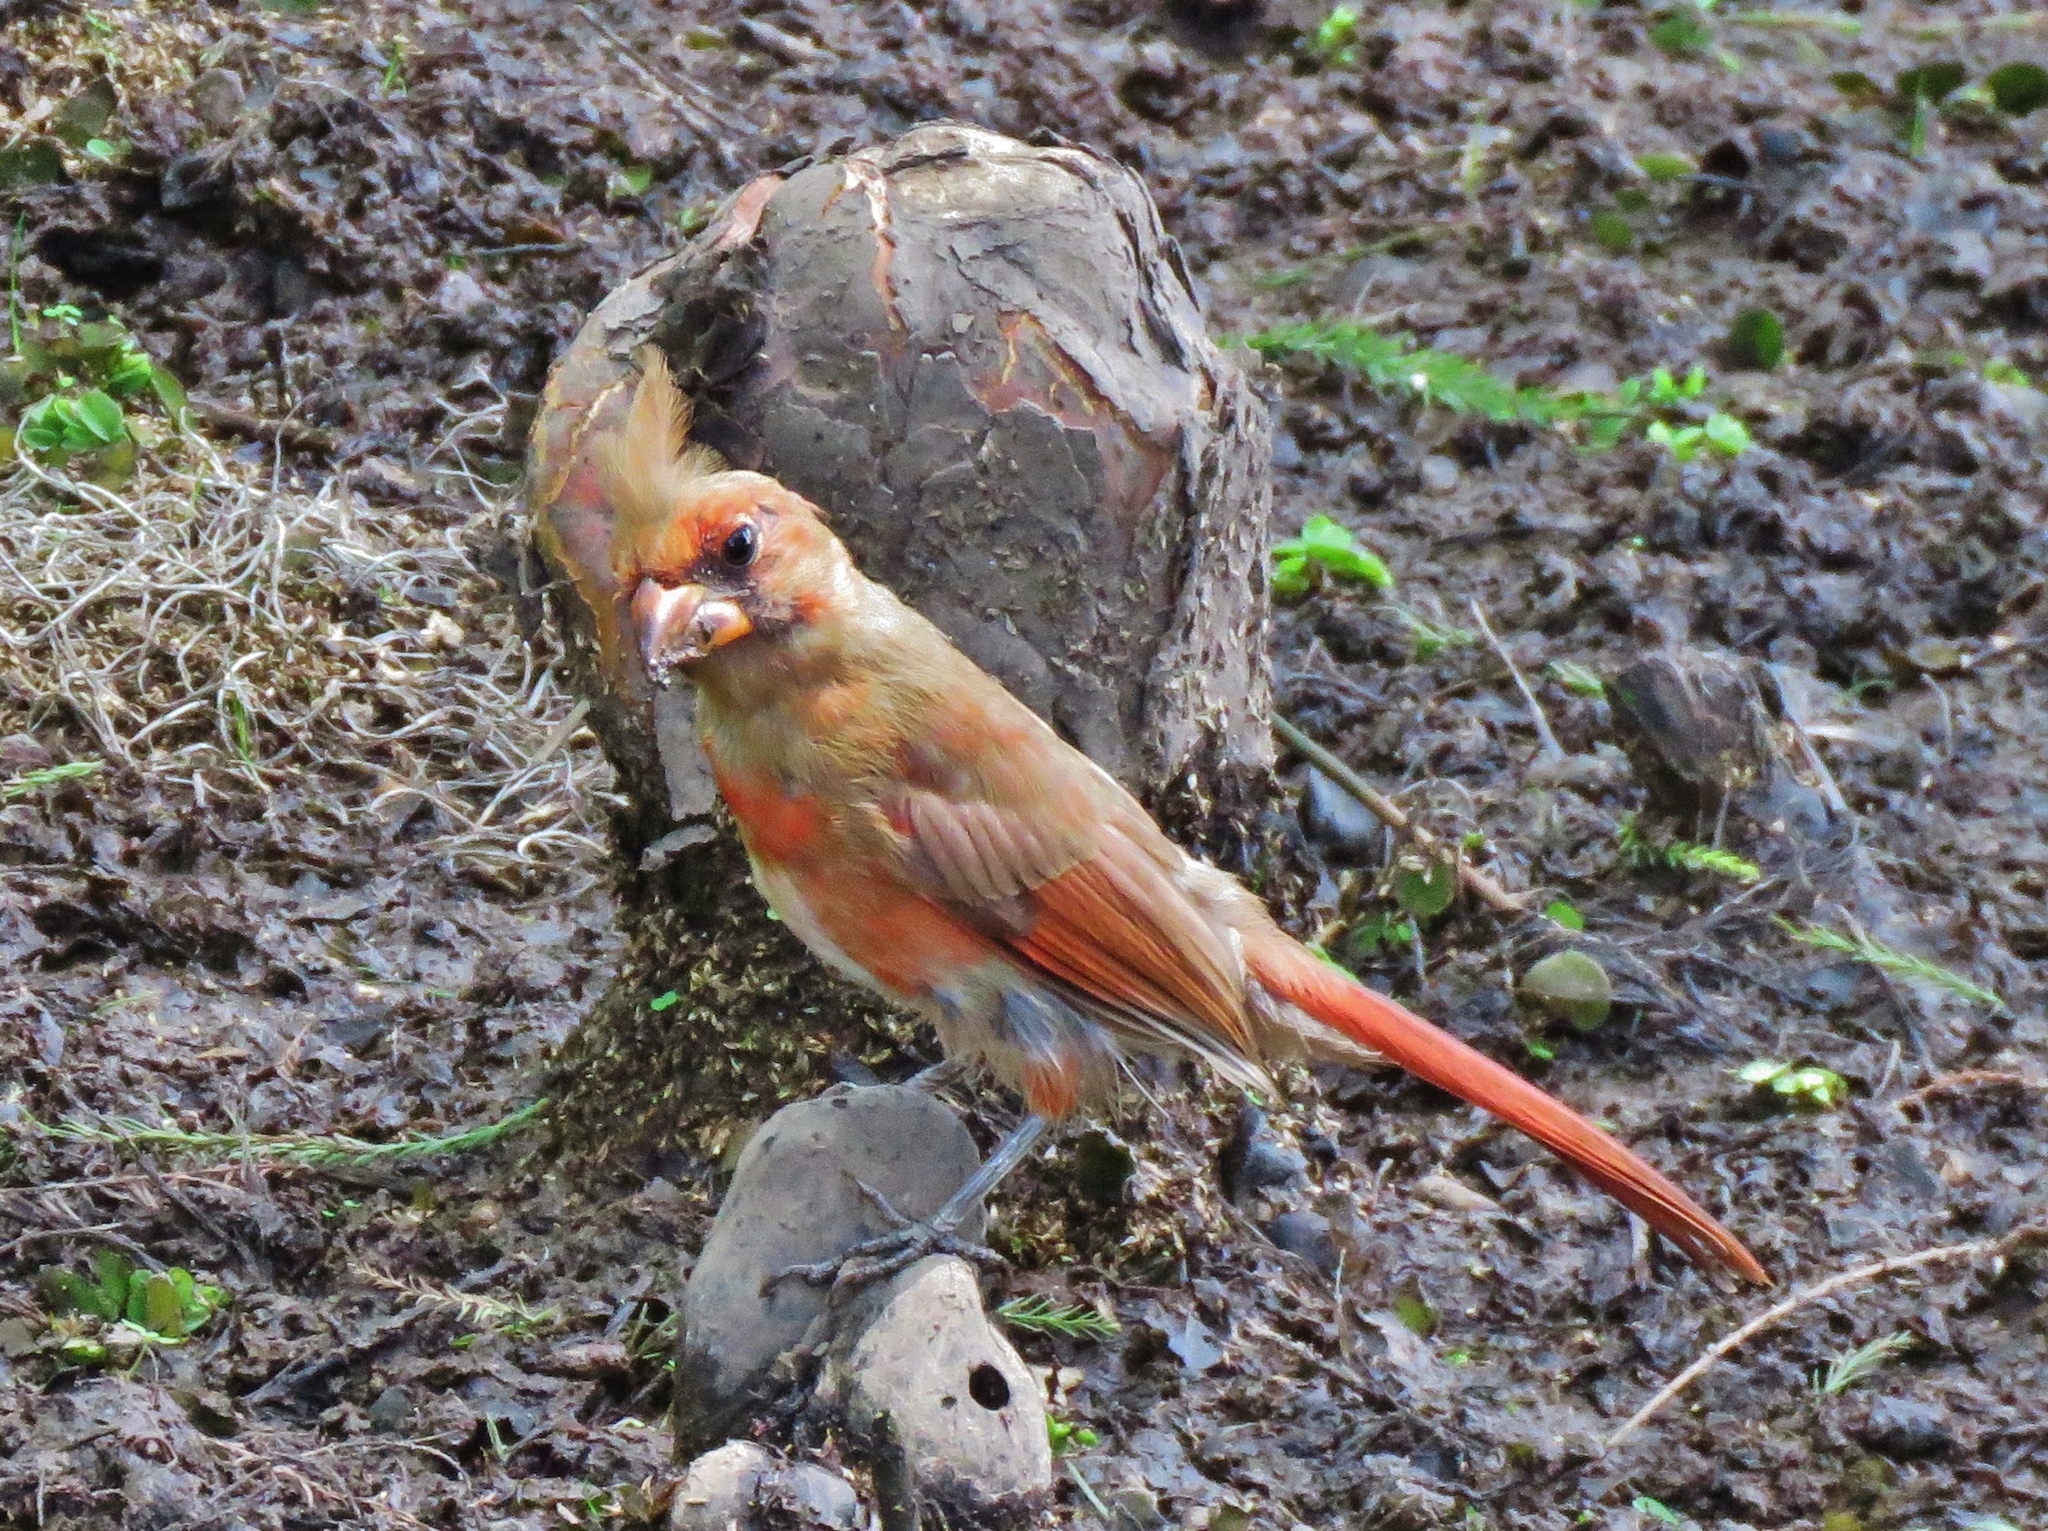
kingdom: Animalia
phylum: Chordata
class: Aves
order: Passeriformes
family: Cardinalidae
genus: Cardinalis
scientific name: Cardinalis cardinalis
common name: Northern cardinal
